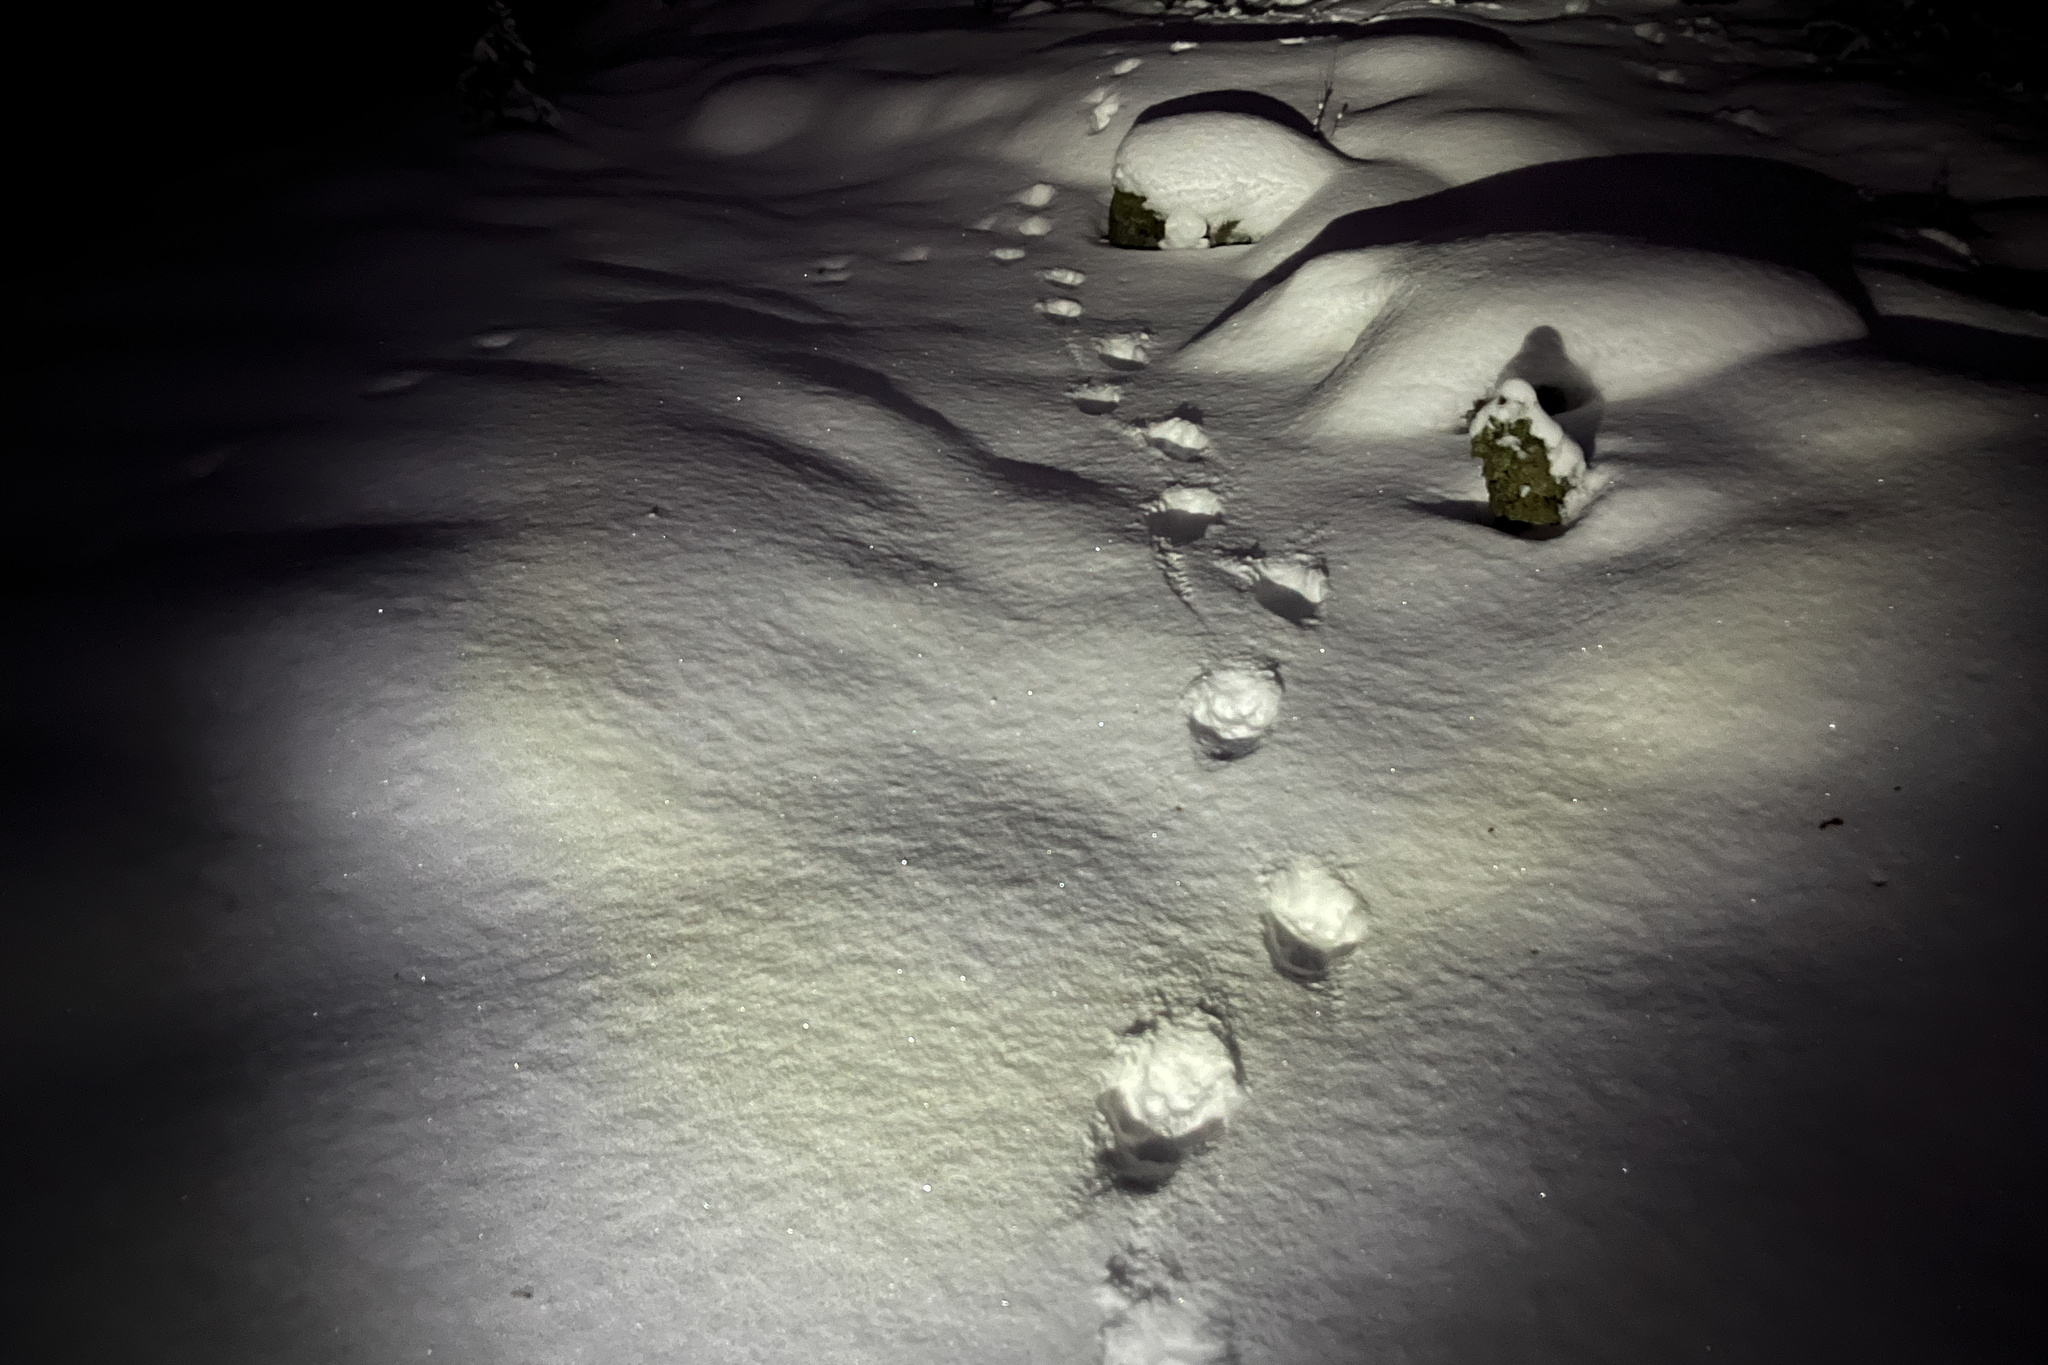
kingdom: Animalia
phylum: Chordata
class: Mammalia
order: Carnivora
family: Felidae
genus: Lynx
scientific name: Lynx lynx
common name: Eurasian lynx
